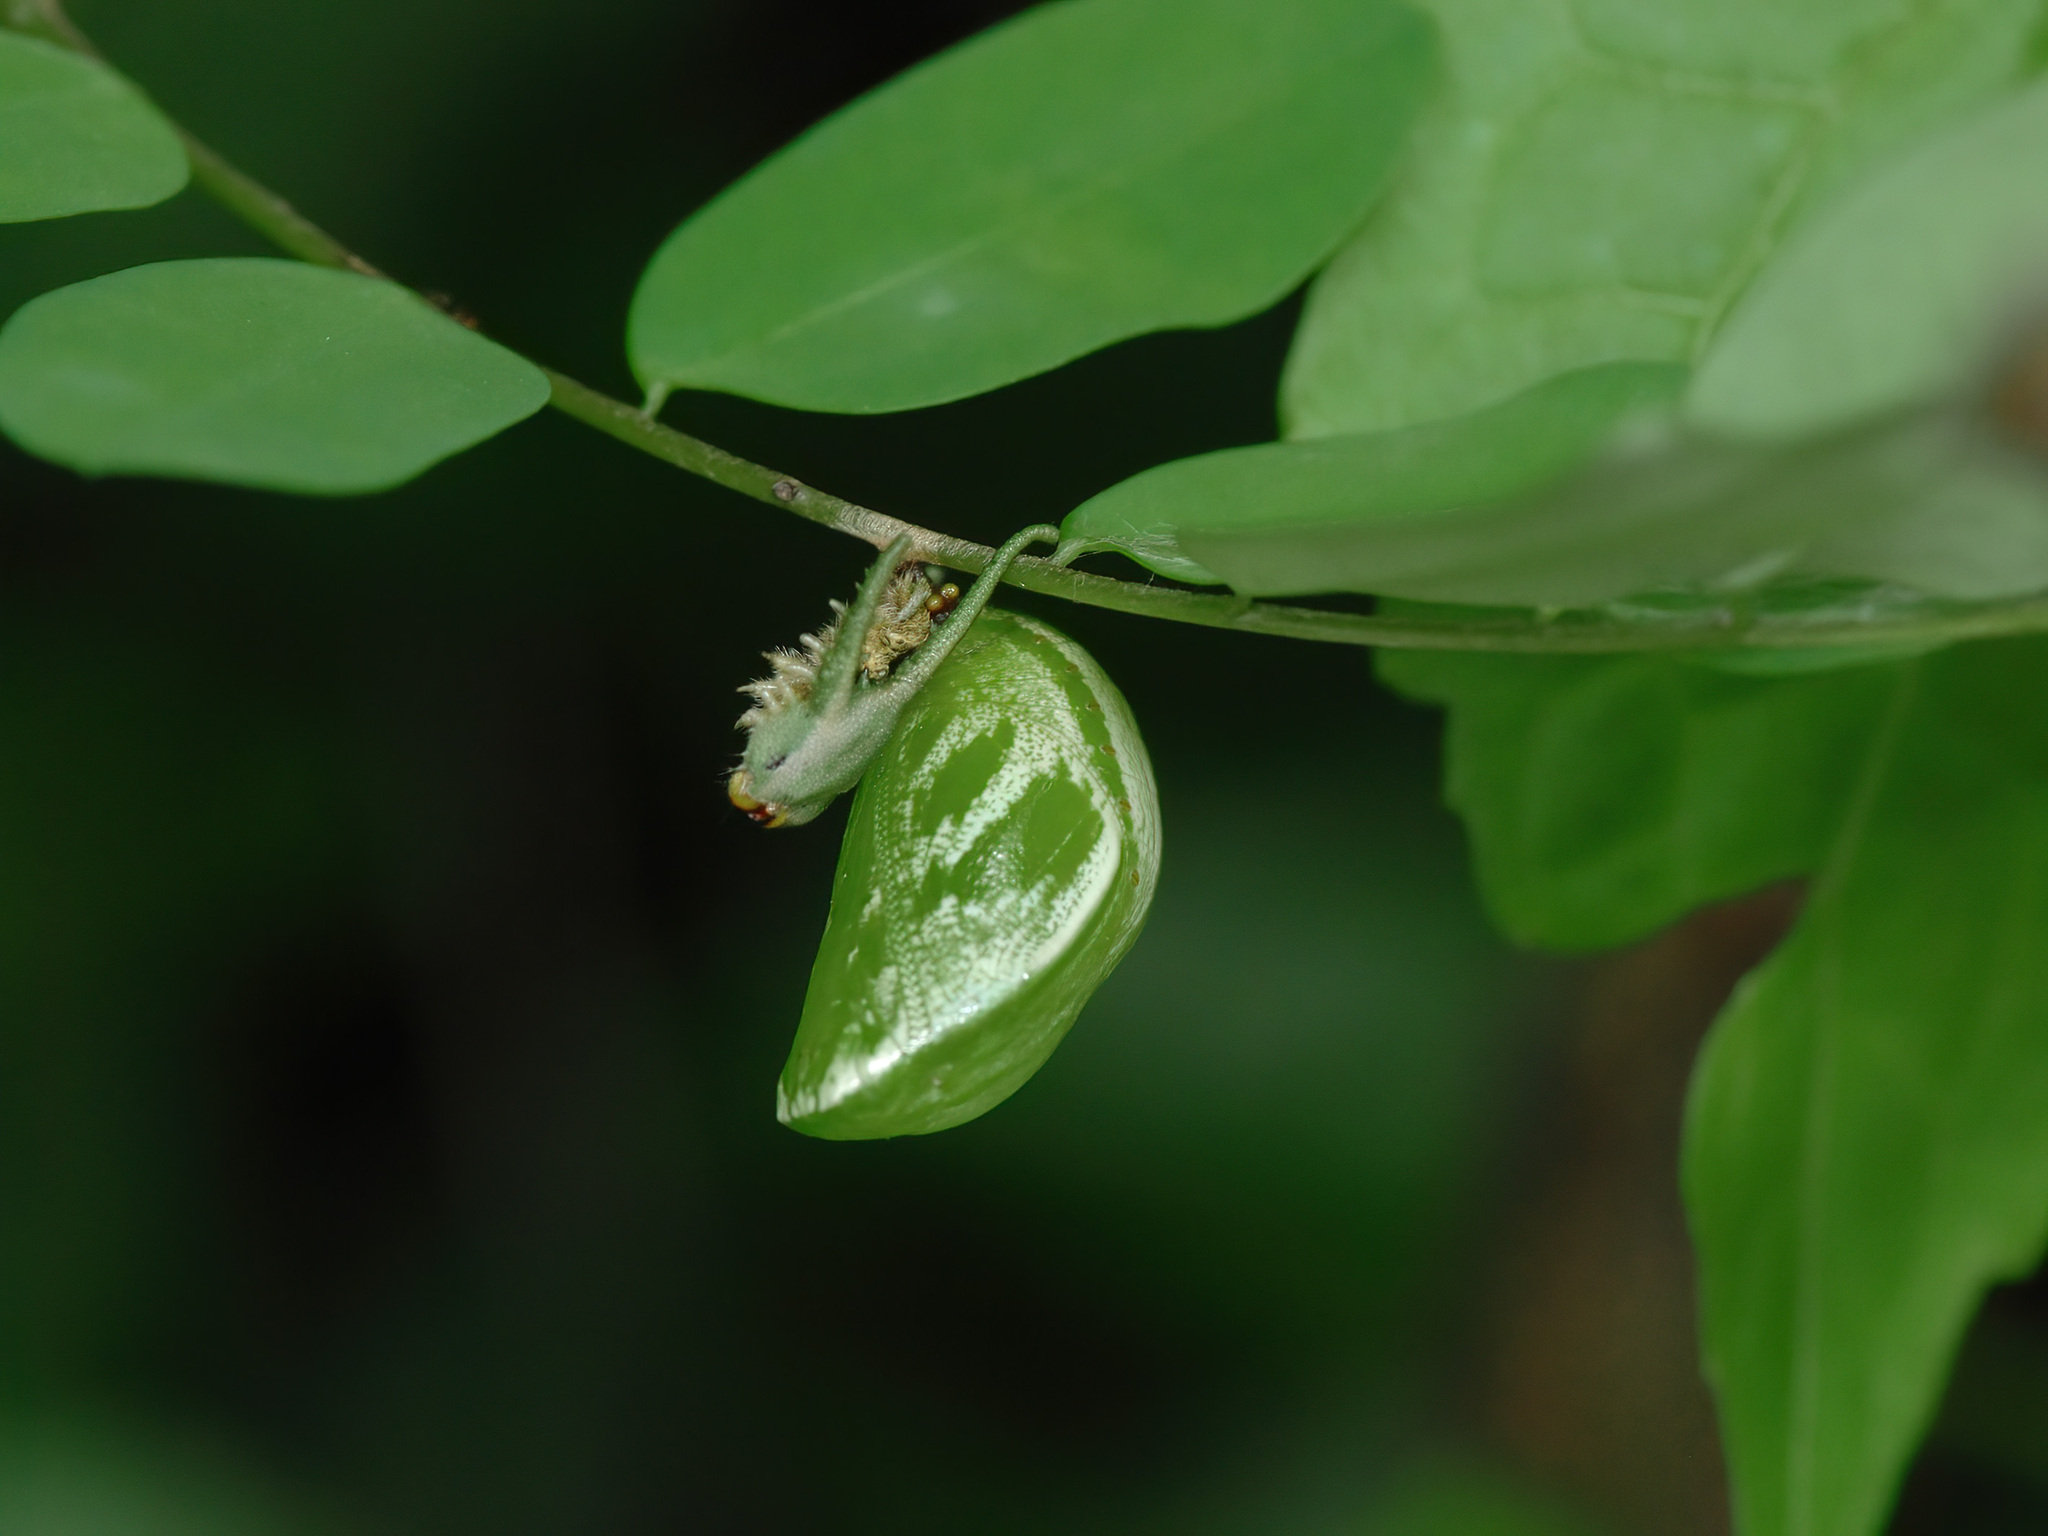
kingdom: Animalia
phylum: Arthropoda
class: Insecta
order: Lepidoptera
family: Nymphalidae
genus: Polyura
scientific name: Polyura hebe
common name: Plain nawab
